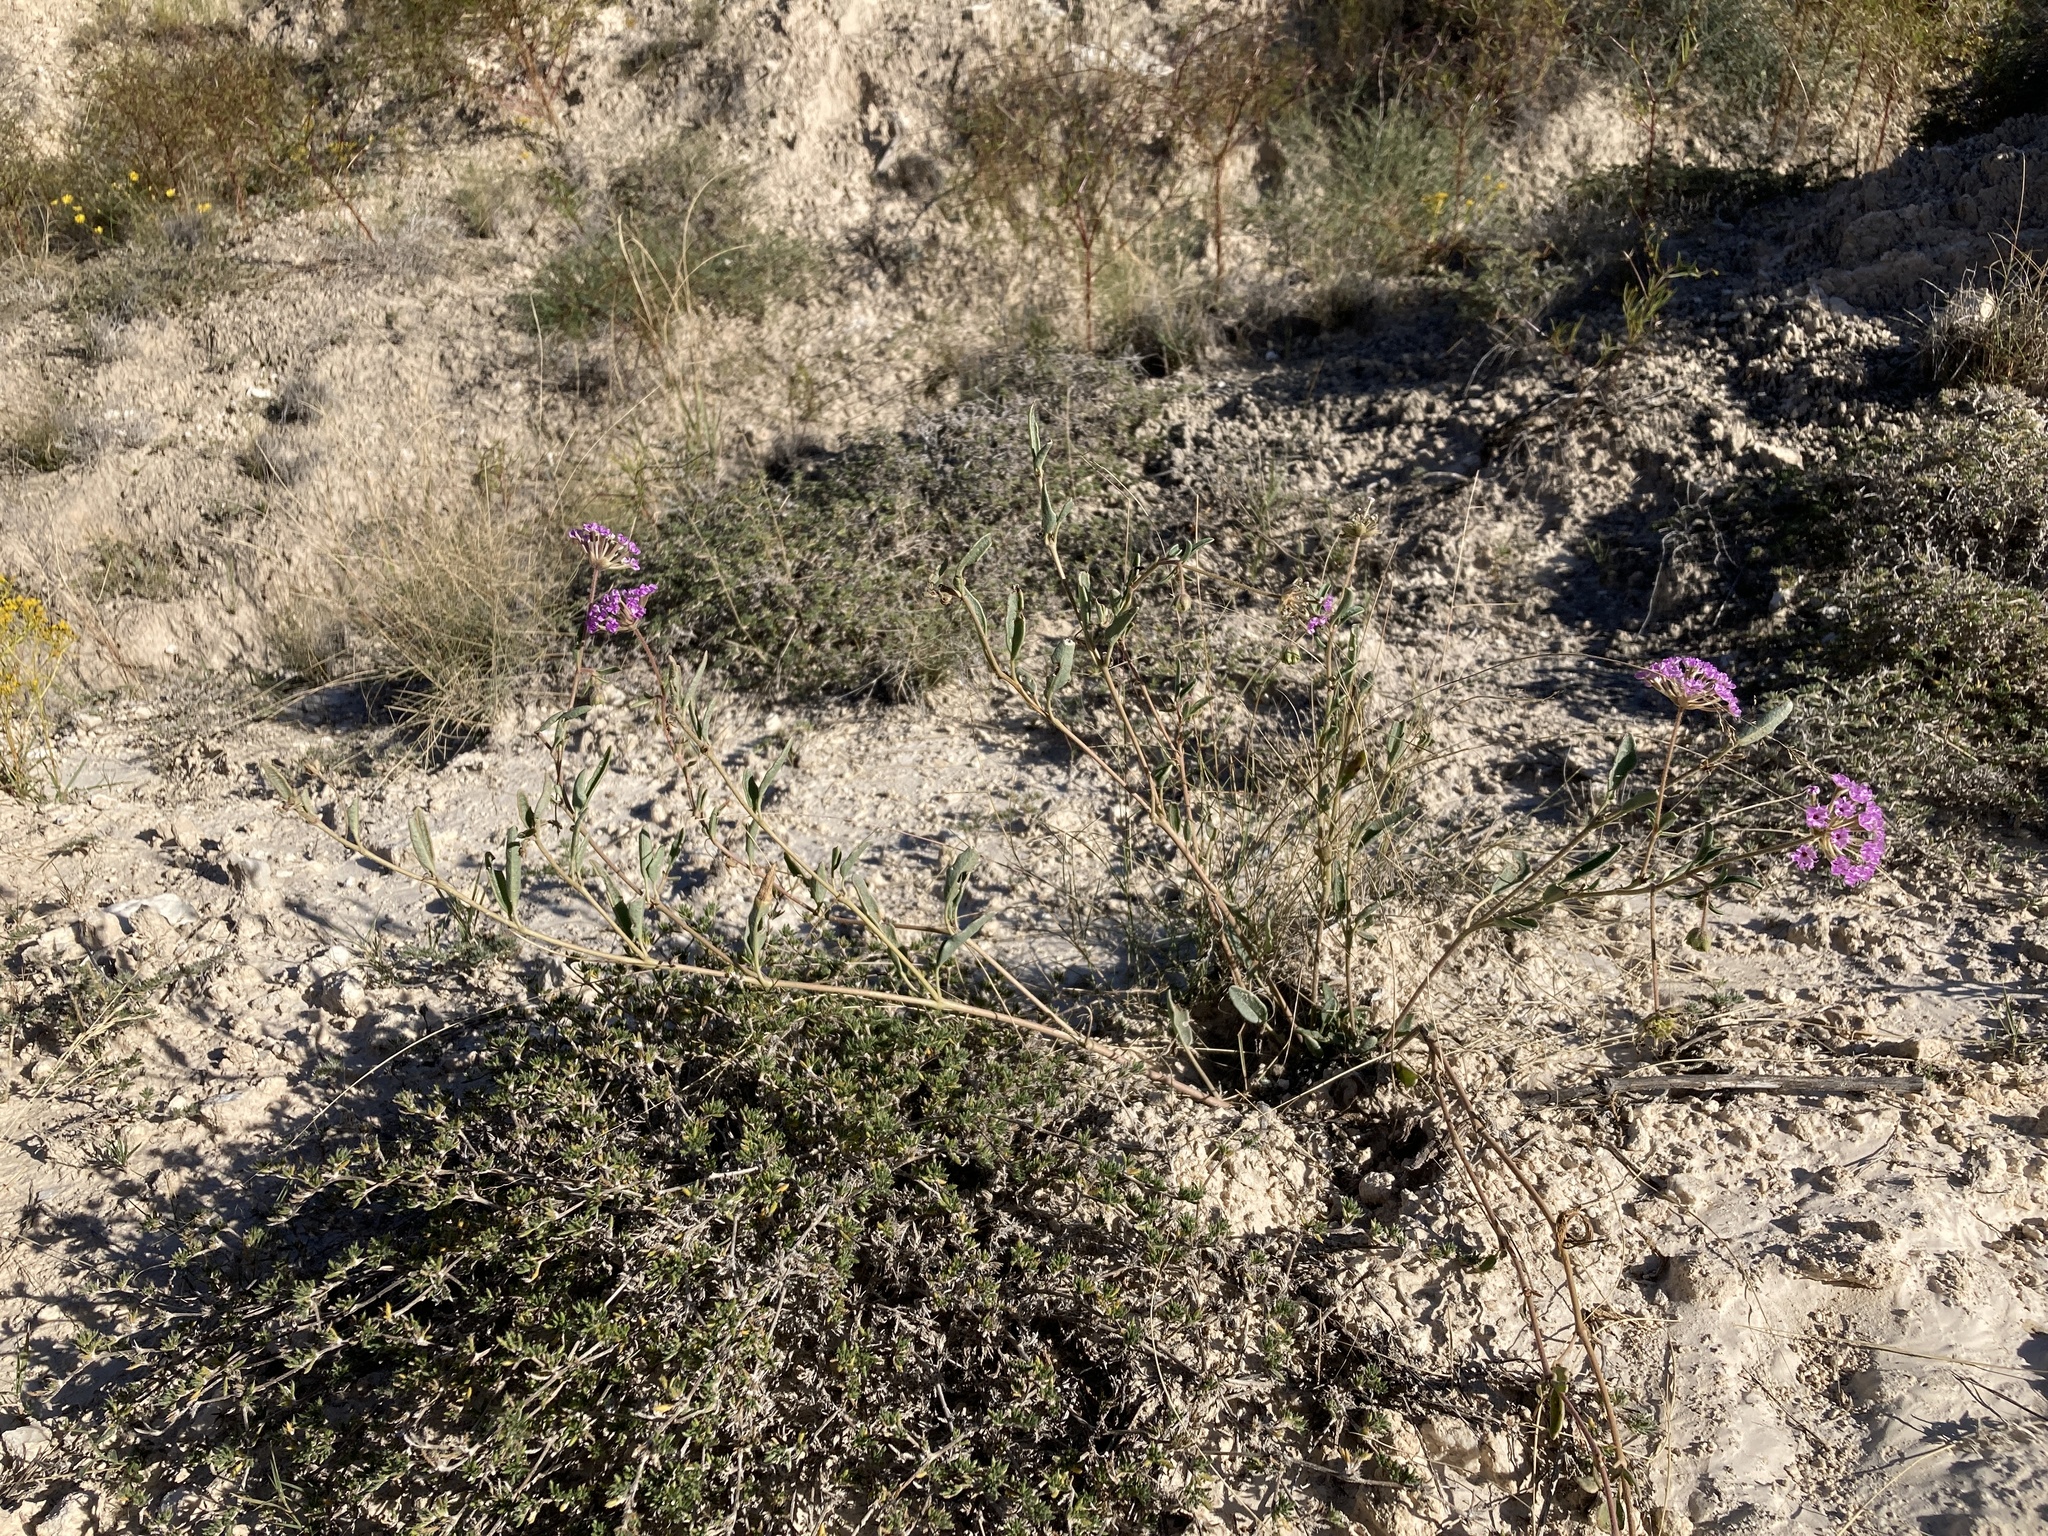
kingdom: Plantae
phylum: Tracheophyta
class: Magnoliopsida
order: Caryophyllales
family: Nyctaginaceae
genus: Abronia
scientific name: Abronia carletonii
